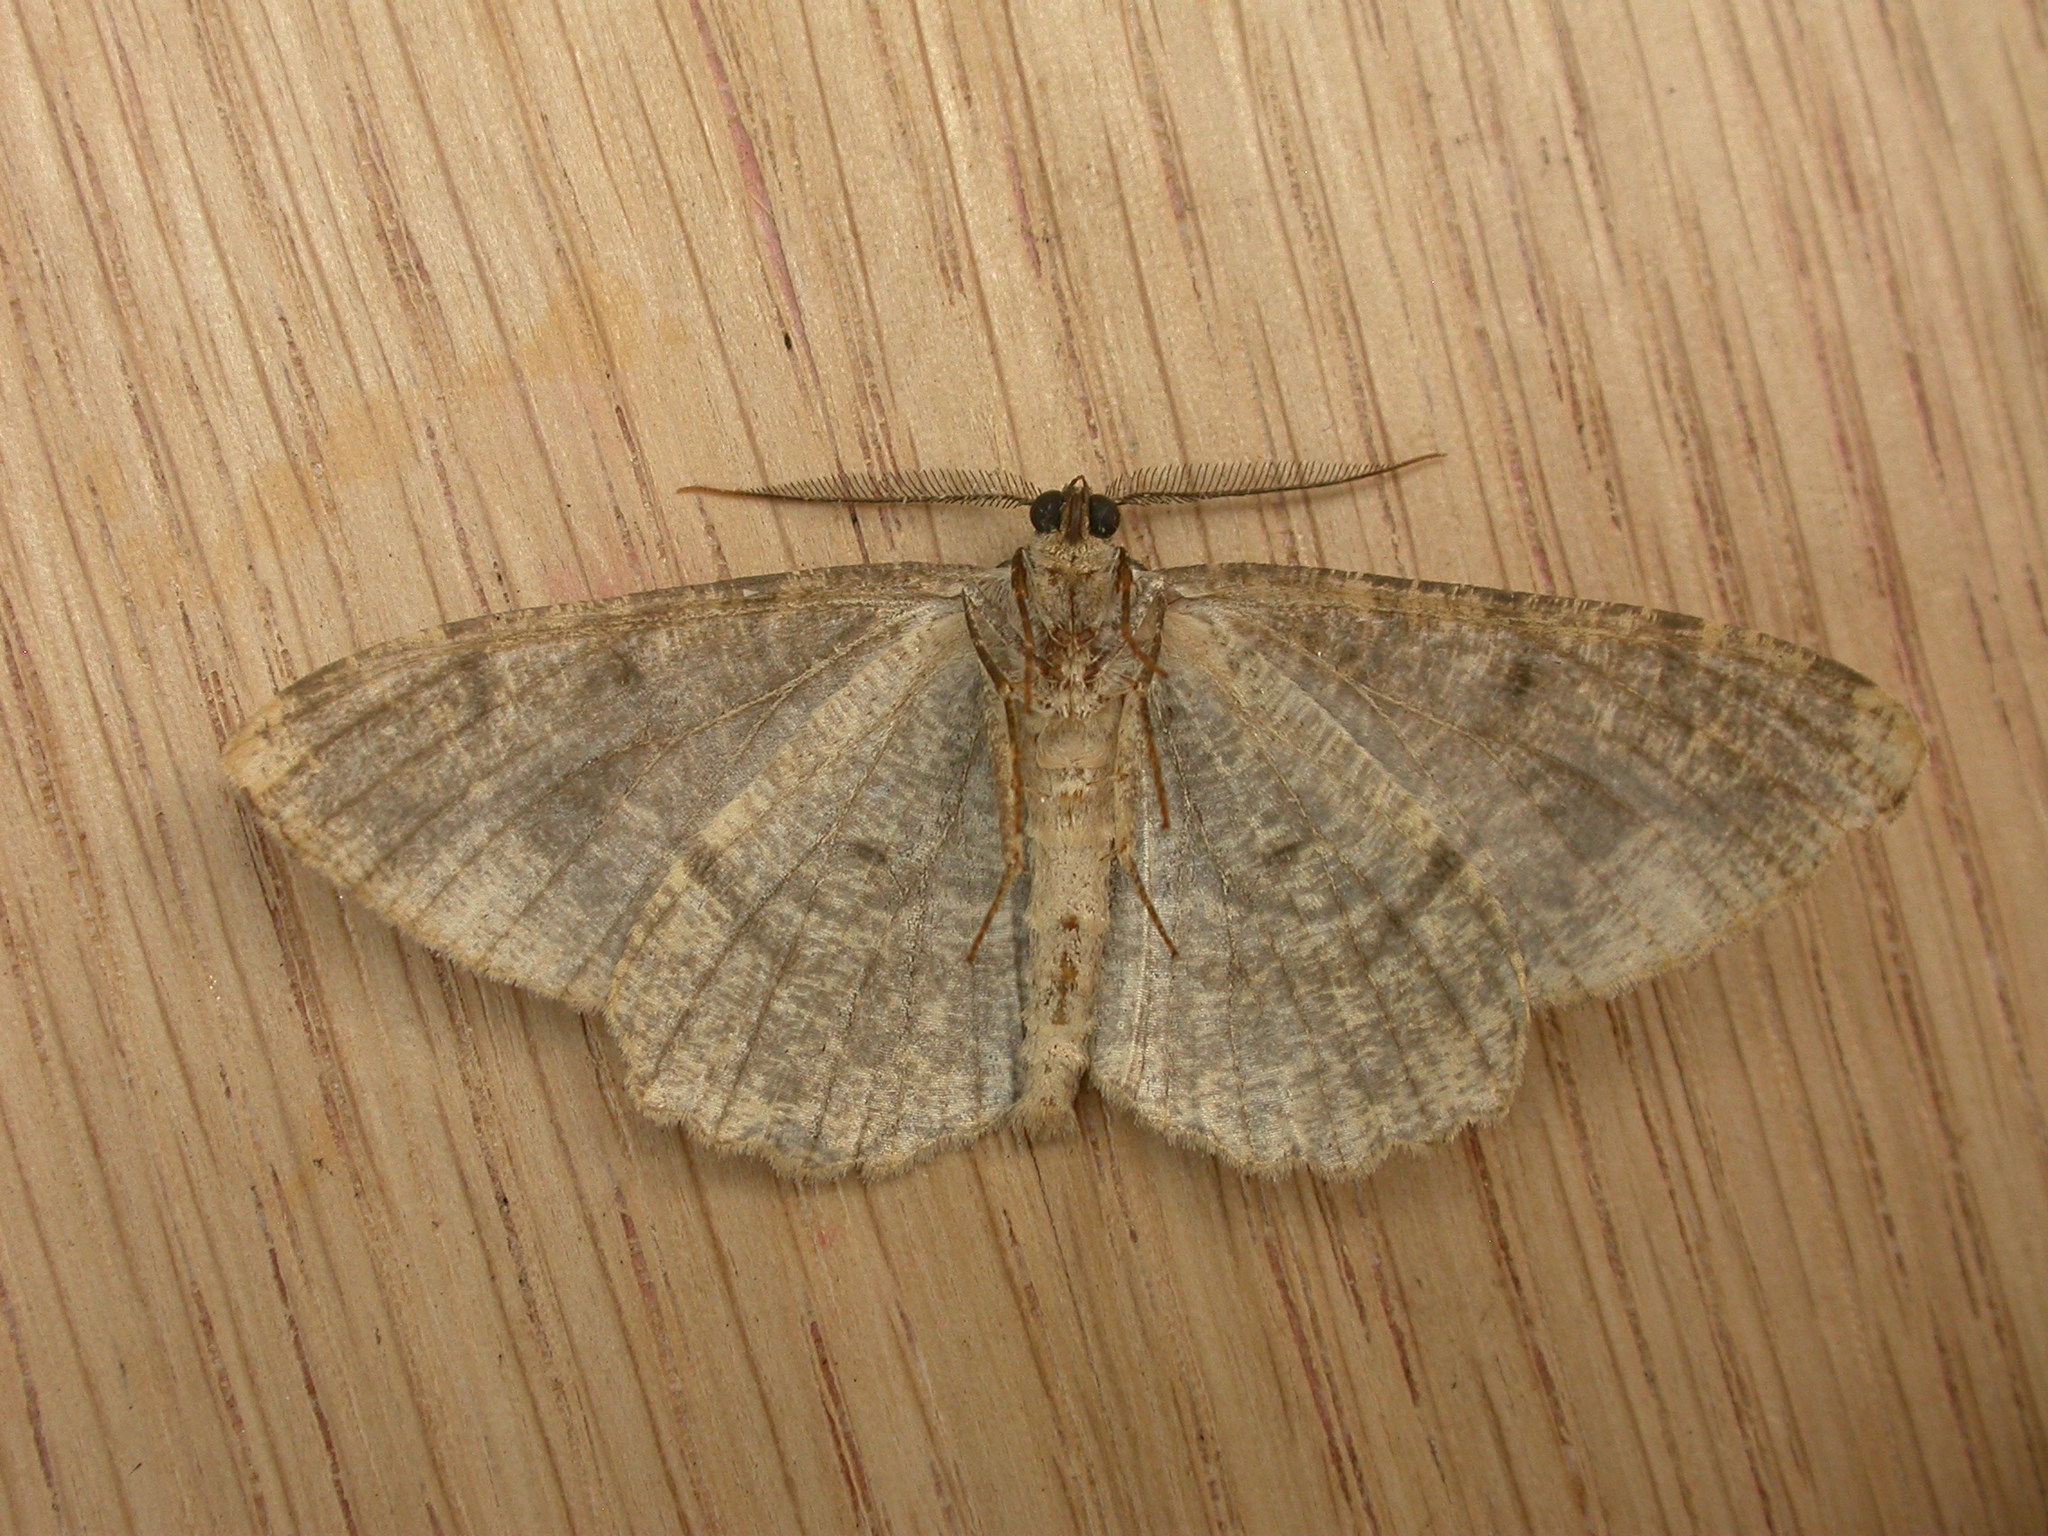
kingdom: Animalia
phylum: Arthropoda
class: Insecta
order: Lepidoptera
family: Geometridae
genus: Alcis
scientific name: Alcis repandata
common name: Mottled beauty
